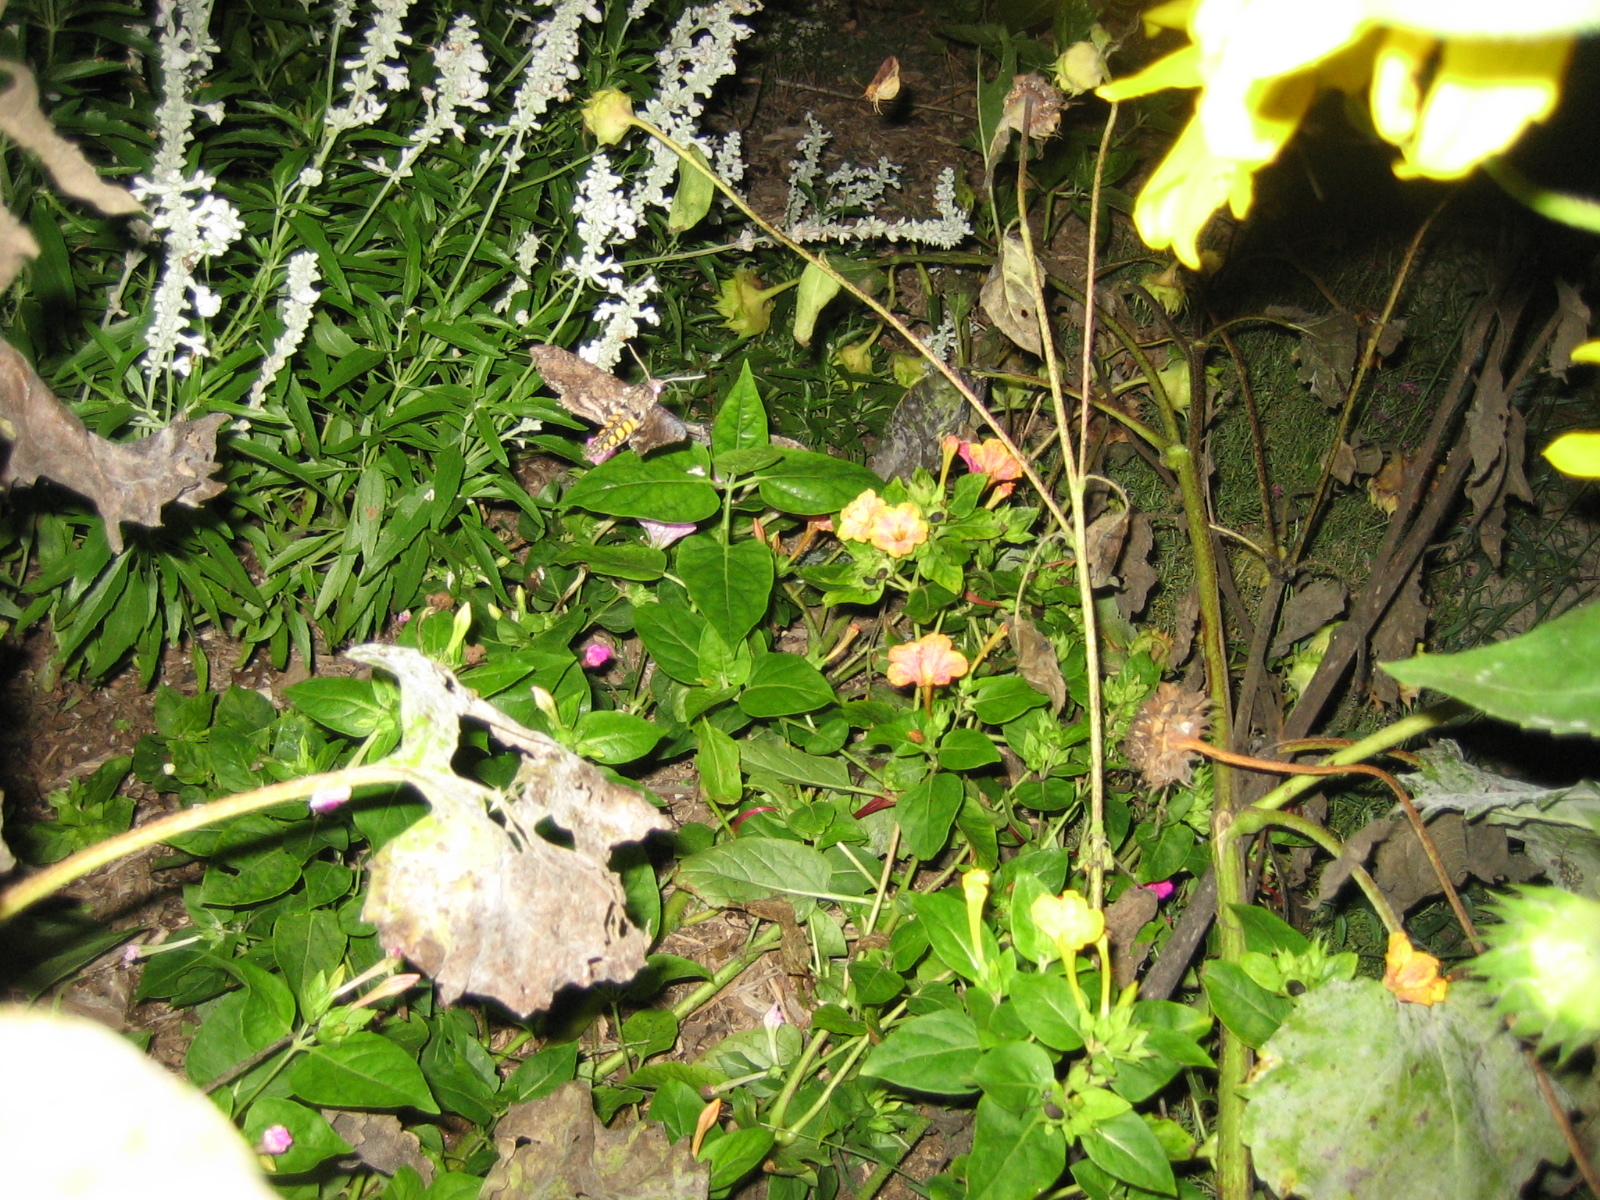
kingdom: Animalia
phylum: Arthropoda
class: Insecta
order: Lepidoptera
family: Sphingidae
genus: Manduca
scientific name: Manduca sexta
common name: Carolina sphinx
